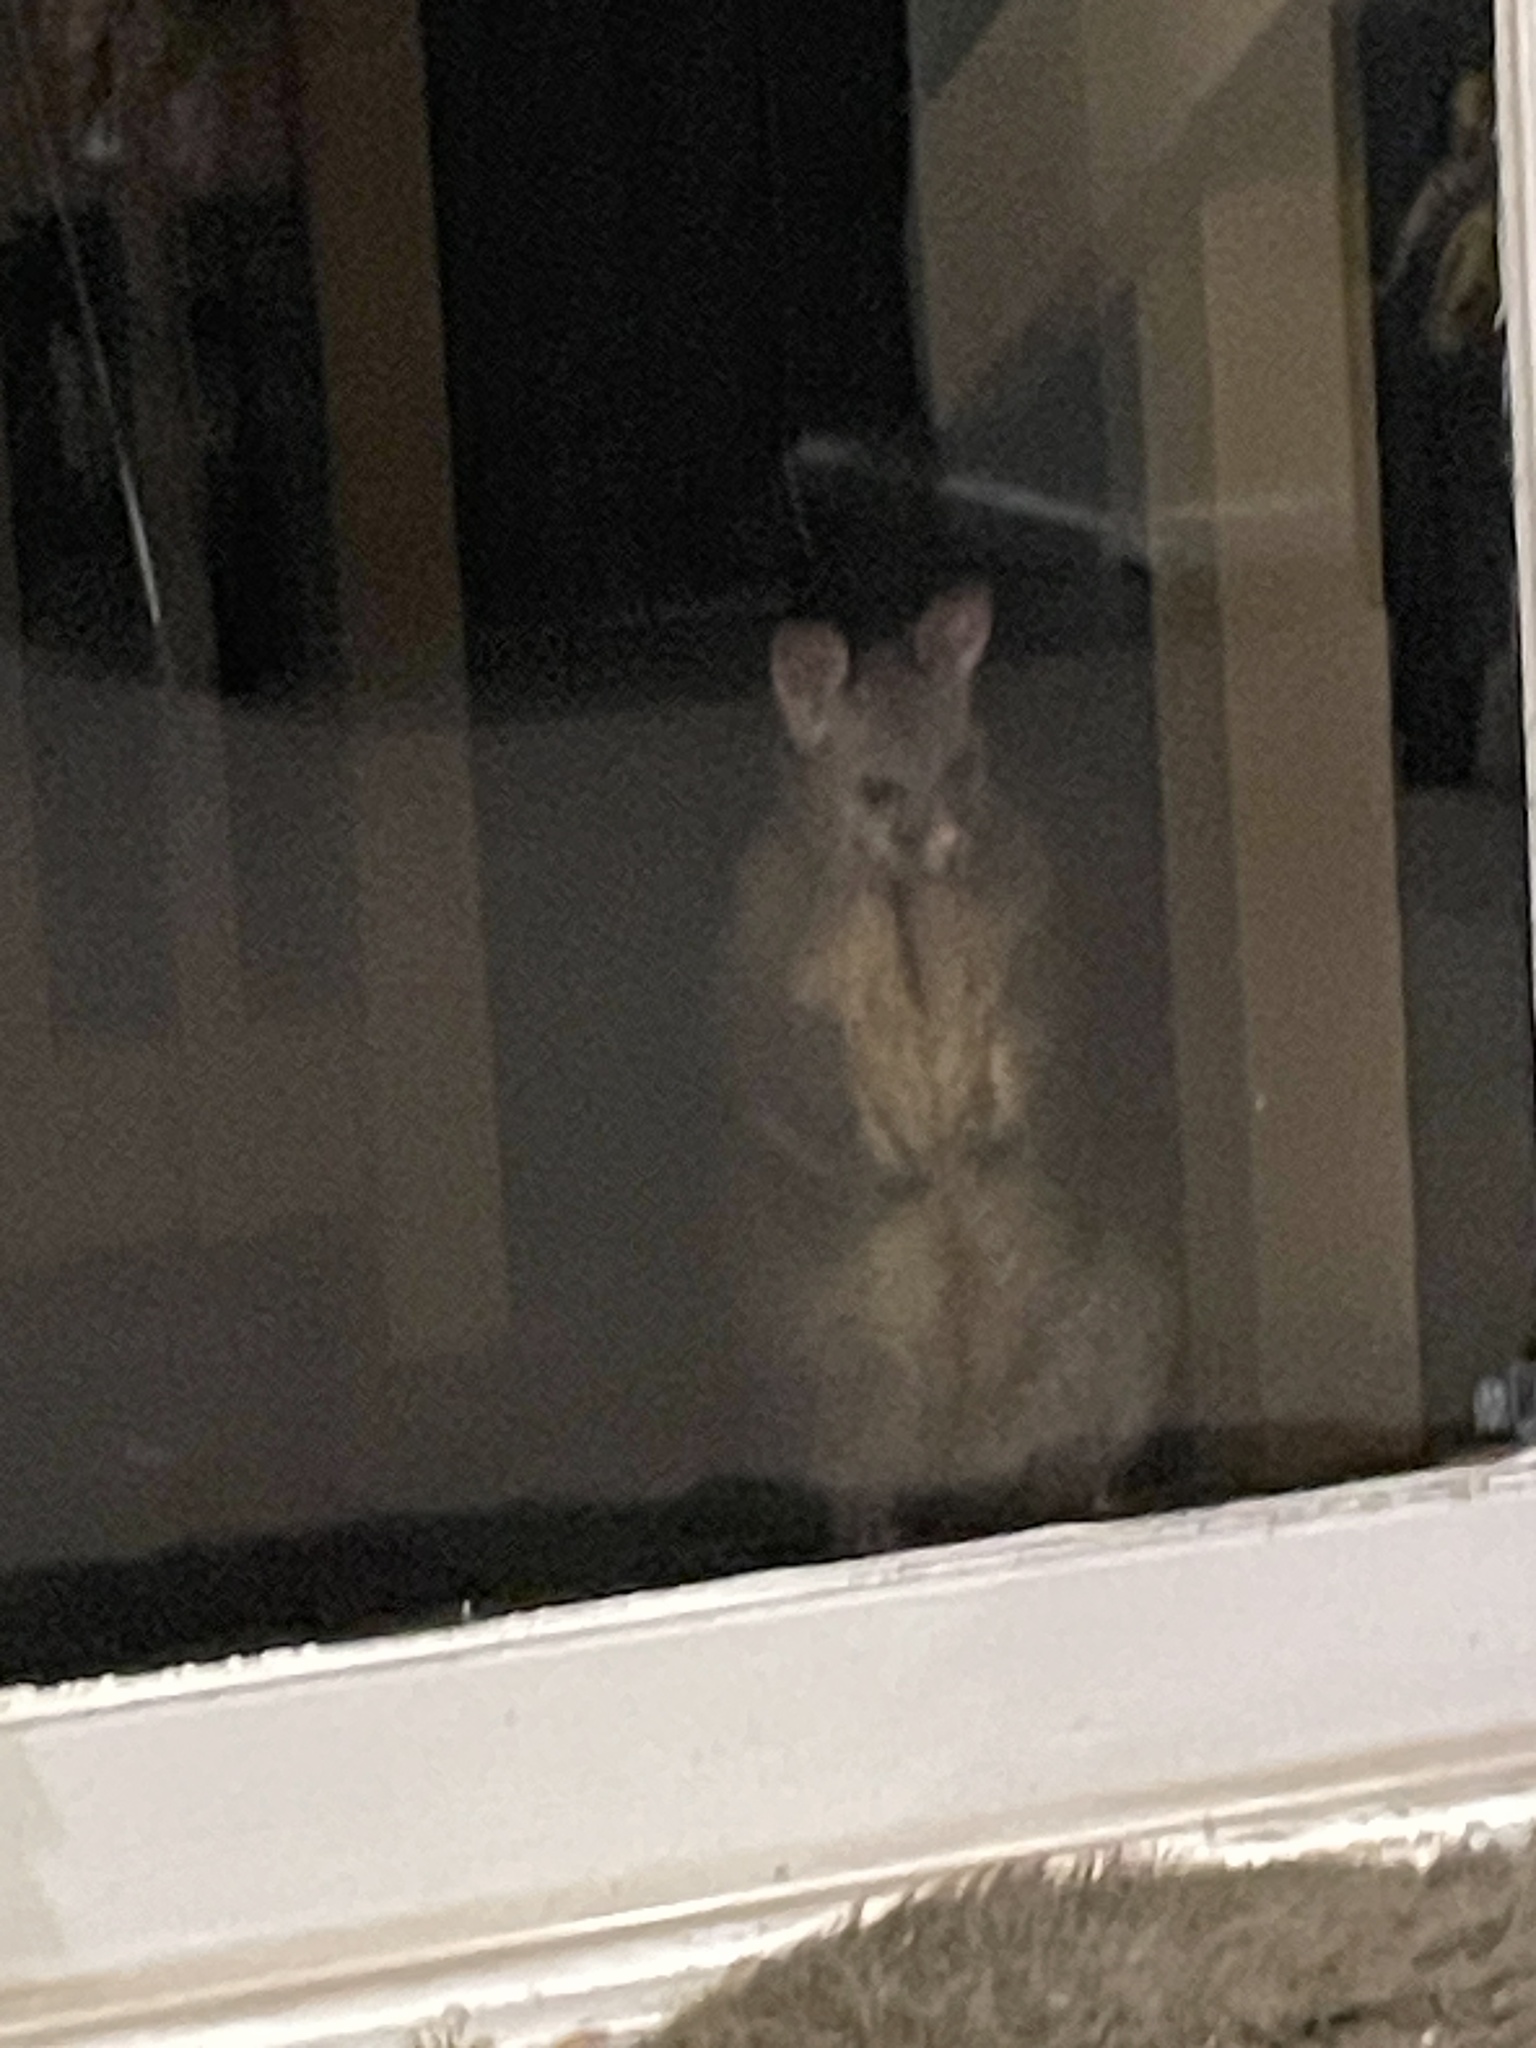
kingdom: Animalia
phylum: Chordata
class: Mammalia
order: Diprotodontia
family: Phalangeridae
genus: Trichosurus
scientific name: Trichosurus vulpecula
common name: Common brushtail
